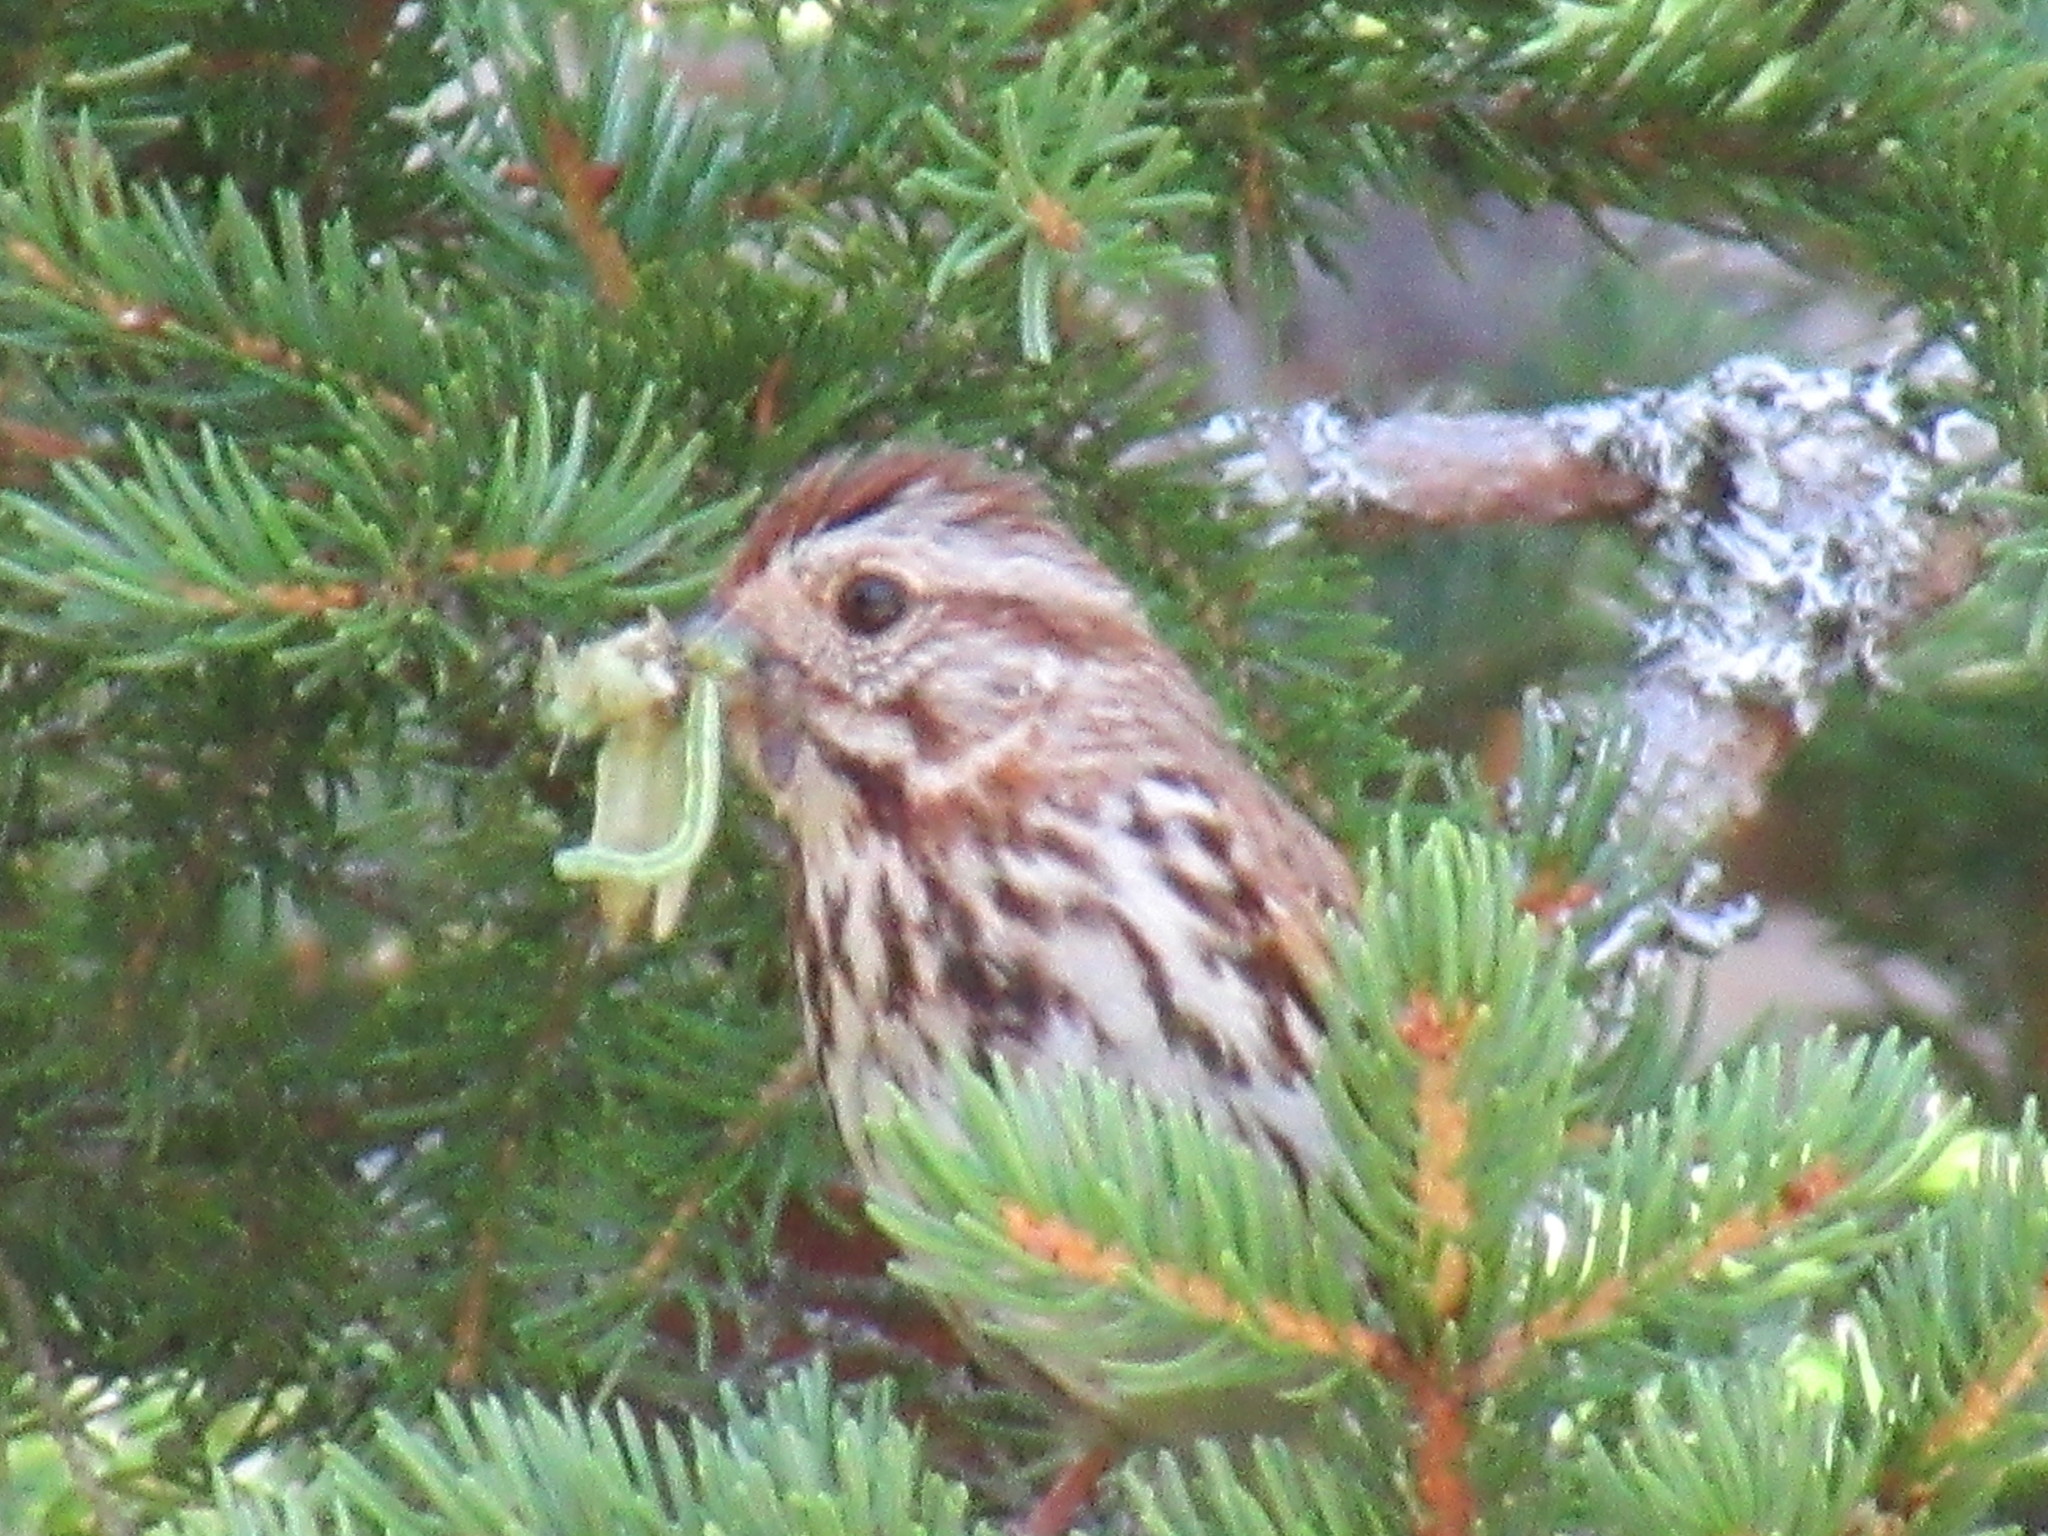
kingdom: Animalia
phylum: Chordata
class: Aves
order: Passeriformes
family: Passerellidae
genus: Melospiza
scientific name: Melospiza melodia
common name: Song sparrow
